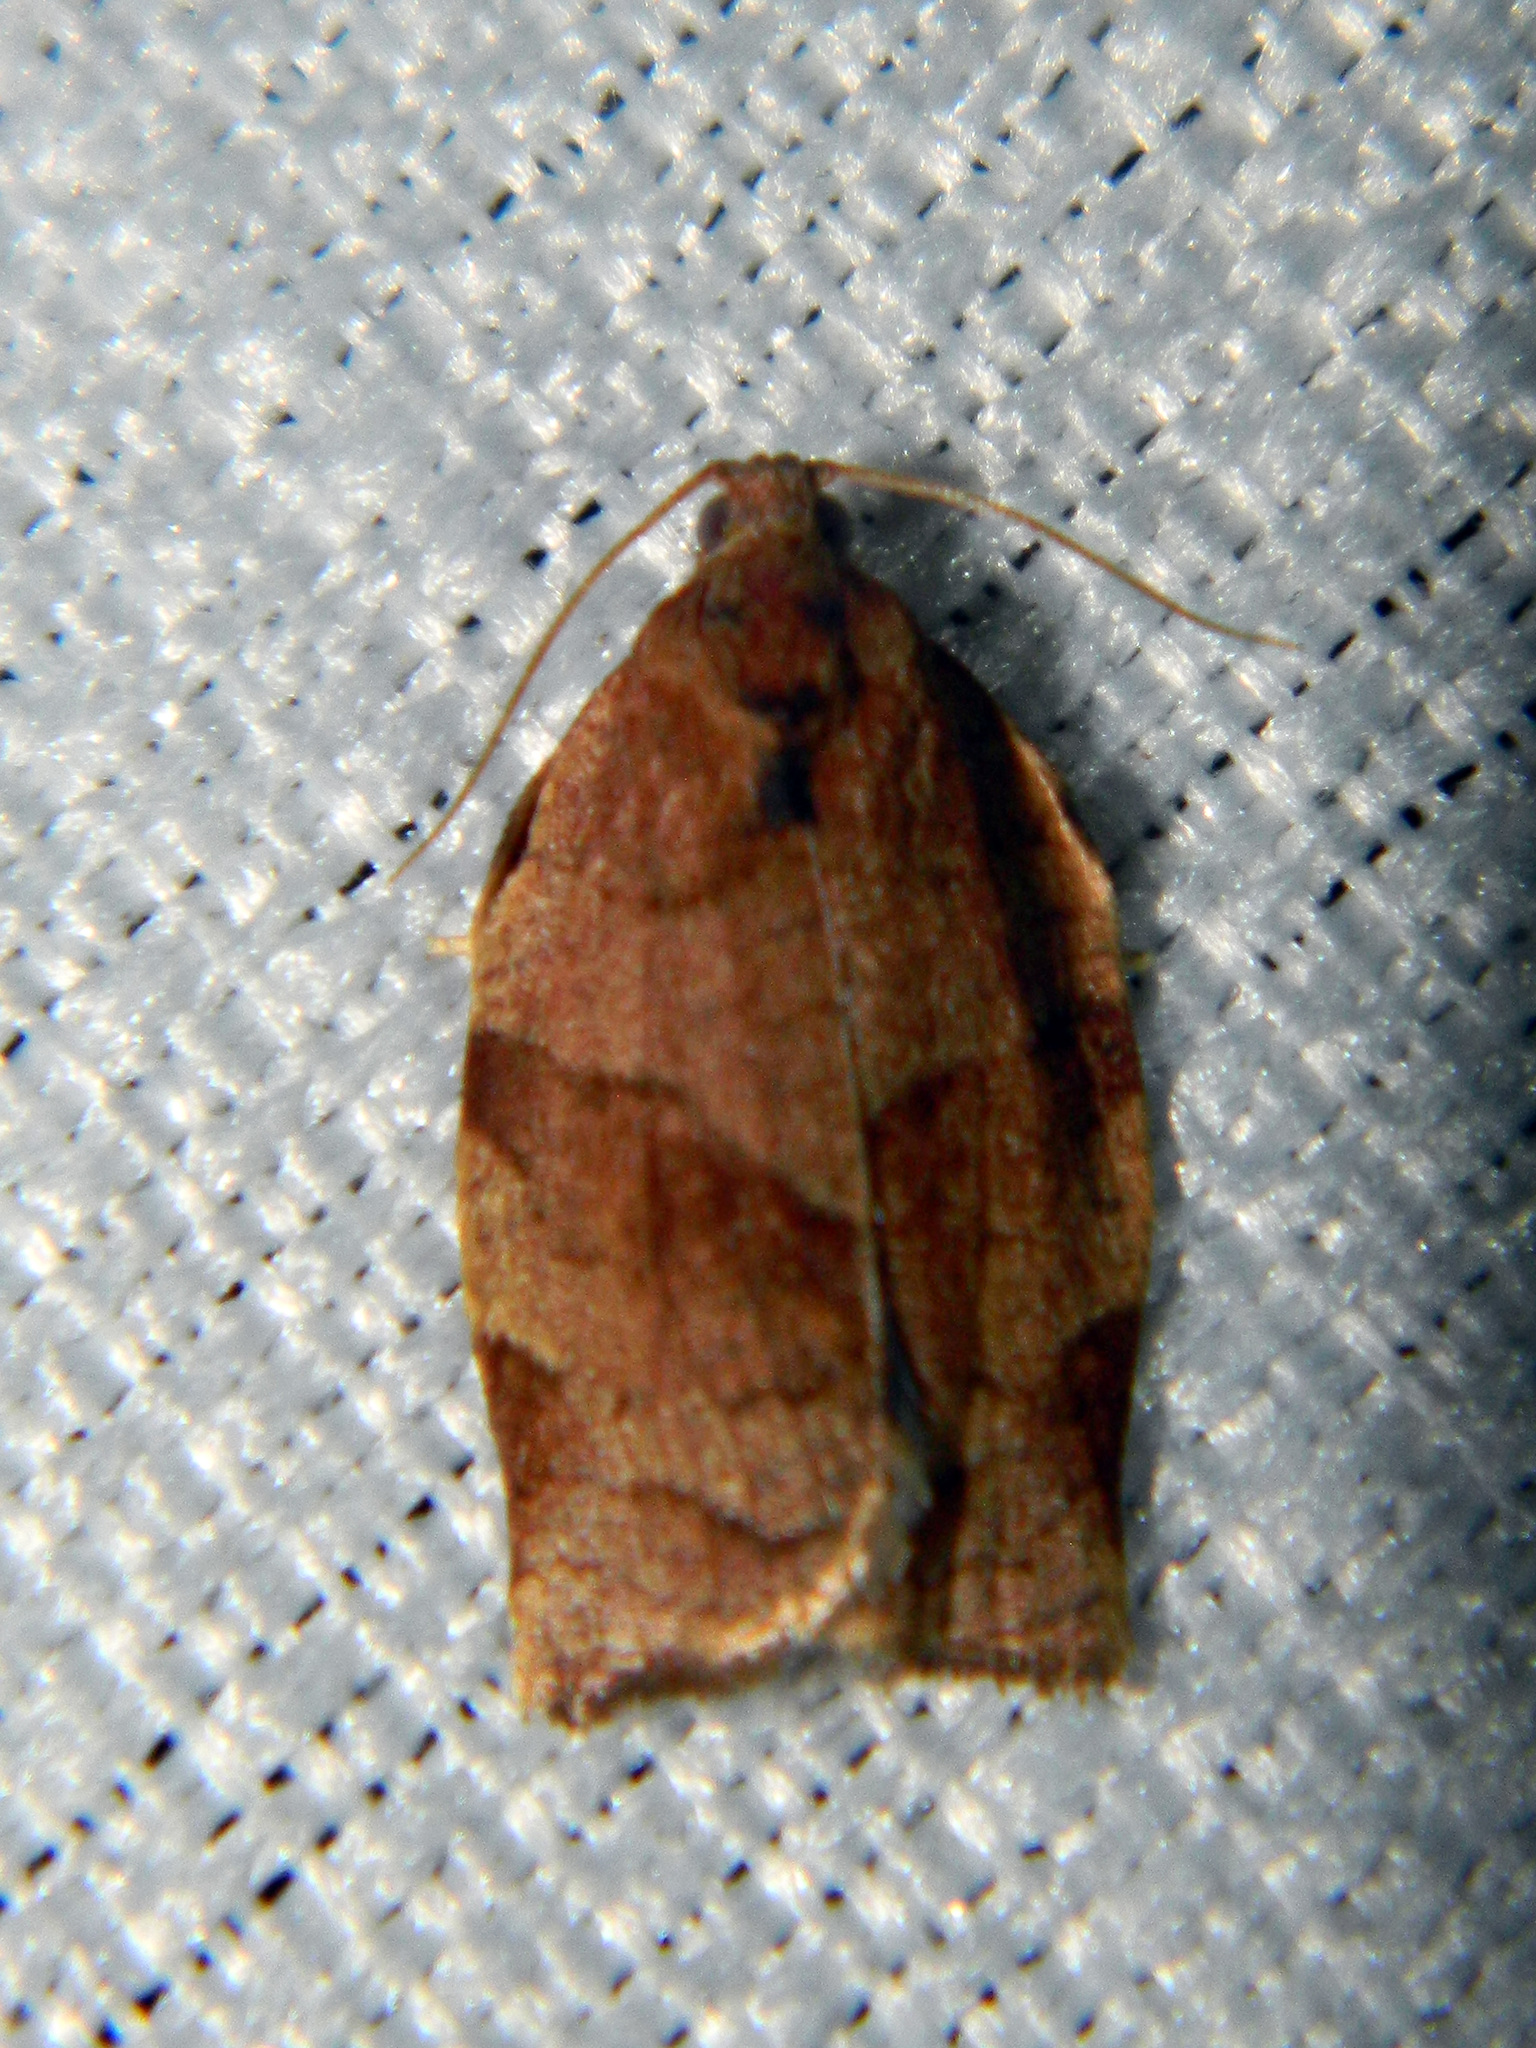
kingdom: Animalia
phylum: Arthropoda
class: Insecta
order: Lepidoptera
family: Tortricidae
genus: Choristoneura
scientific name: Choristoneura rosaceana
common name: Oblique-banded leafroller moth
